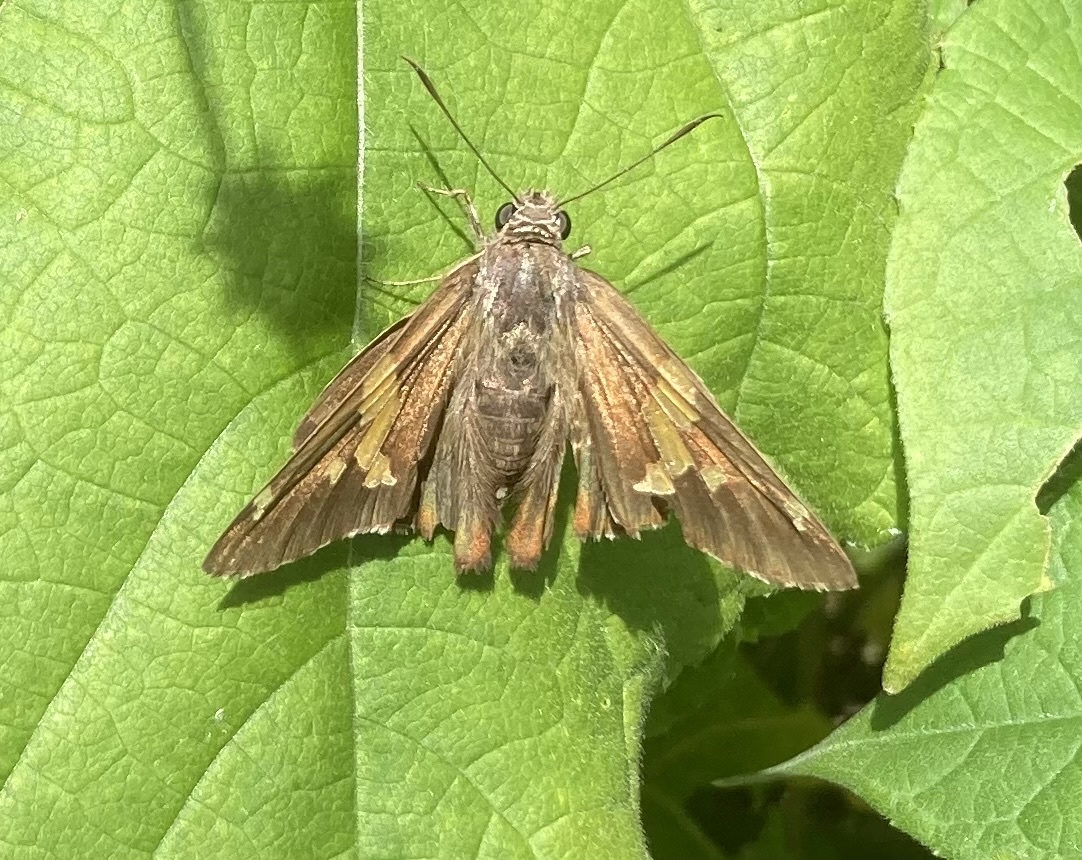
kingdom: Animalia
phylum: Arthropoda
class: Insecta
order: Lepidoptera
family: Hesperiidae
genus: Epargyreus
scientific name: Epargyreus clarus
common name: Silver-spotted skipper
